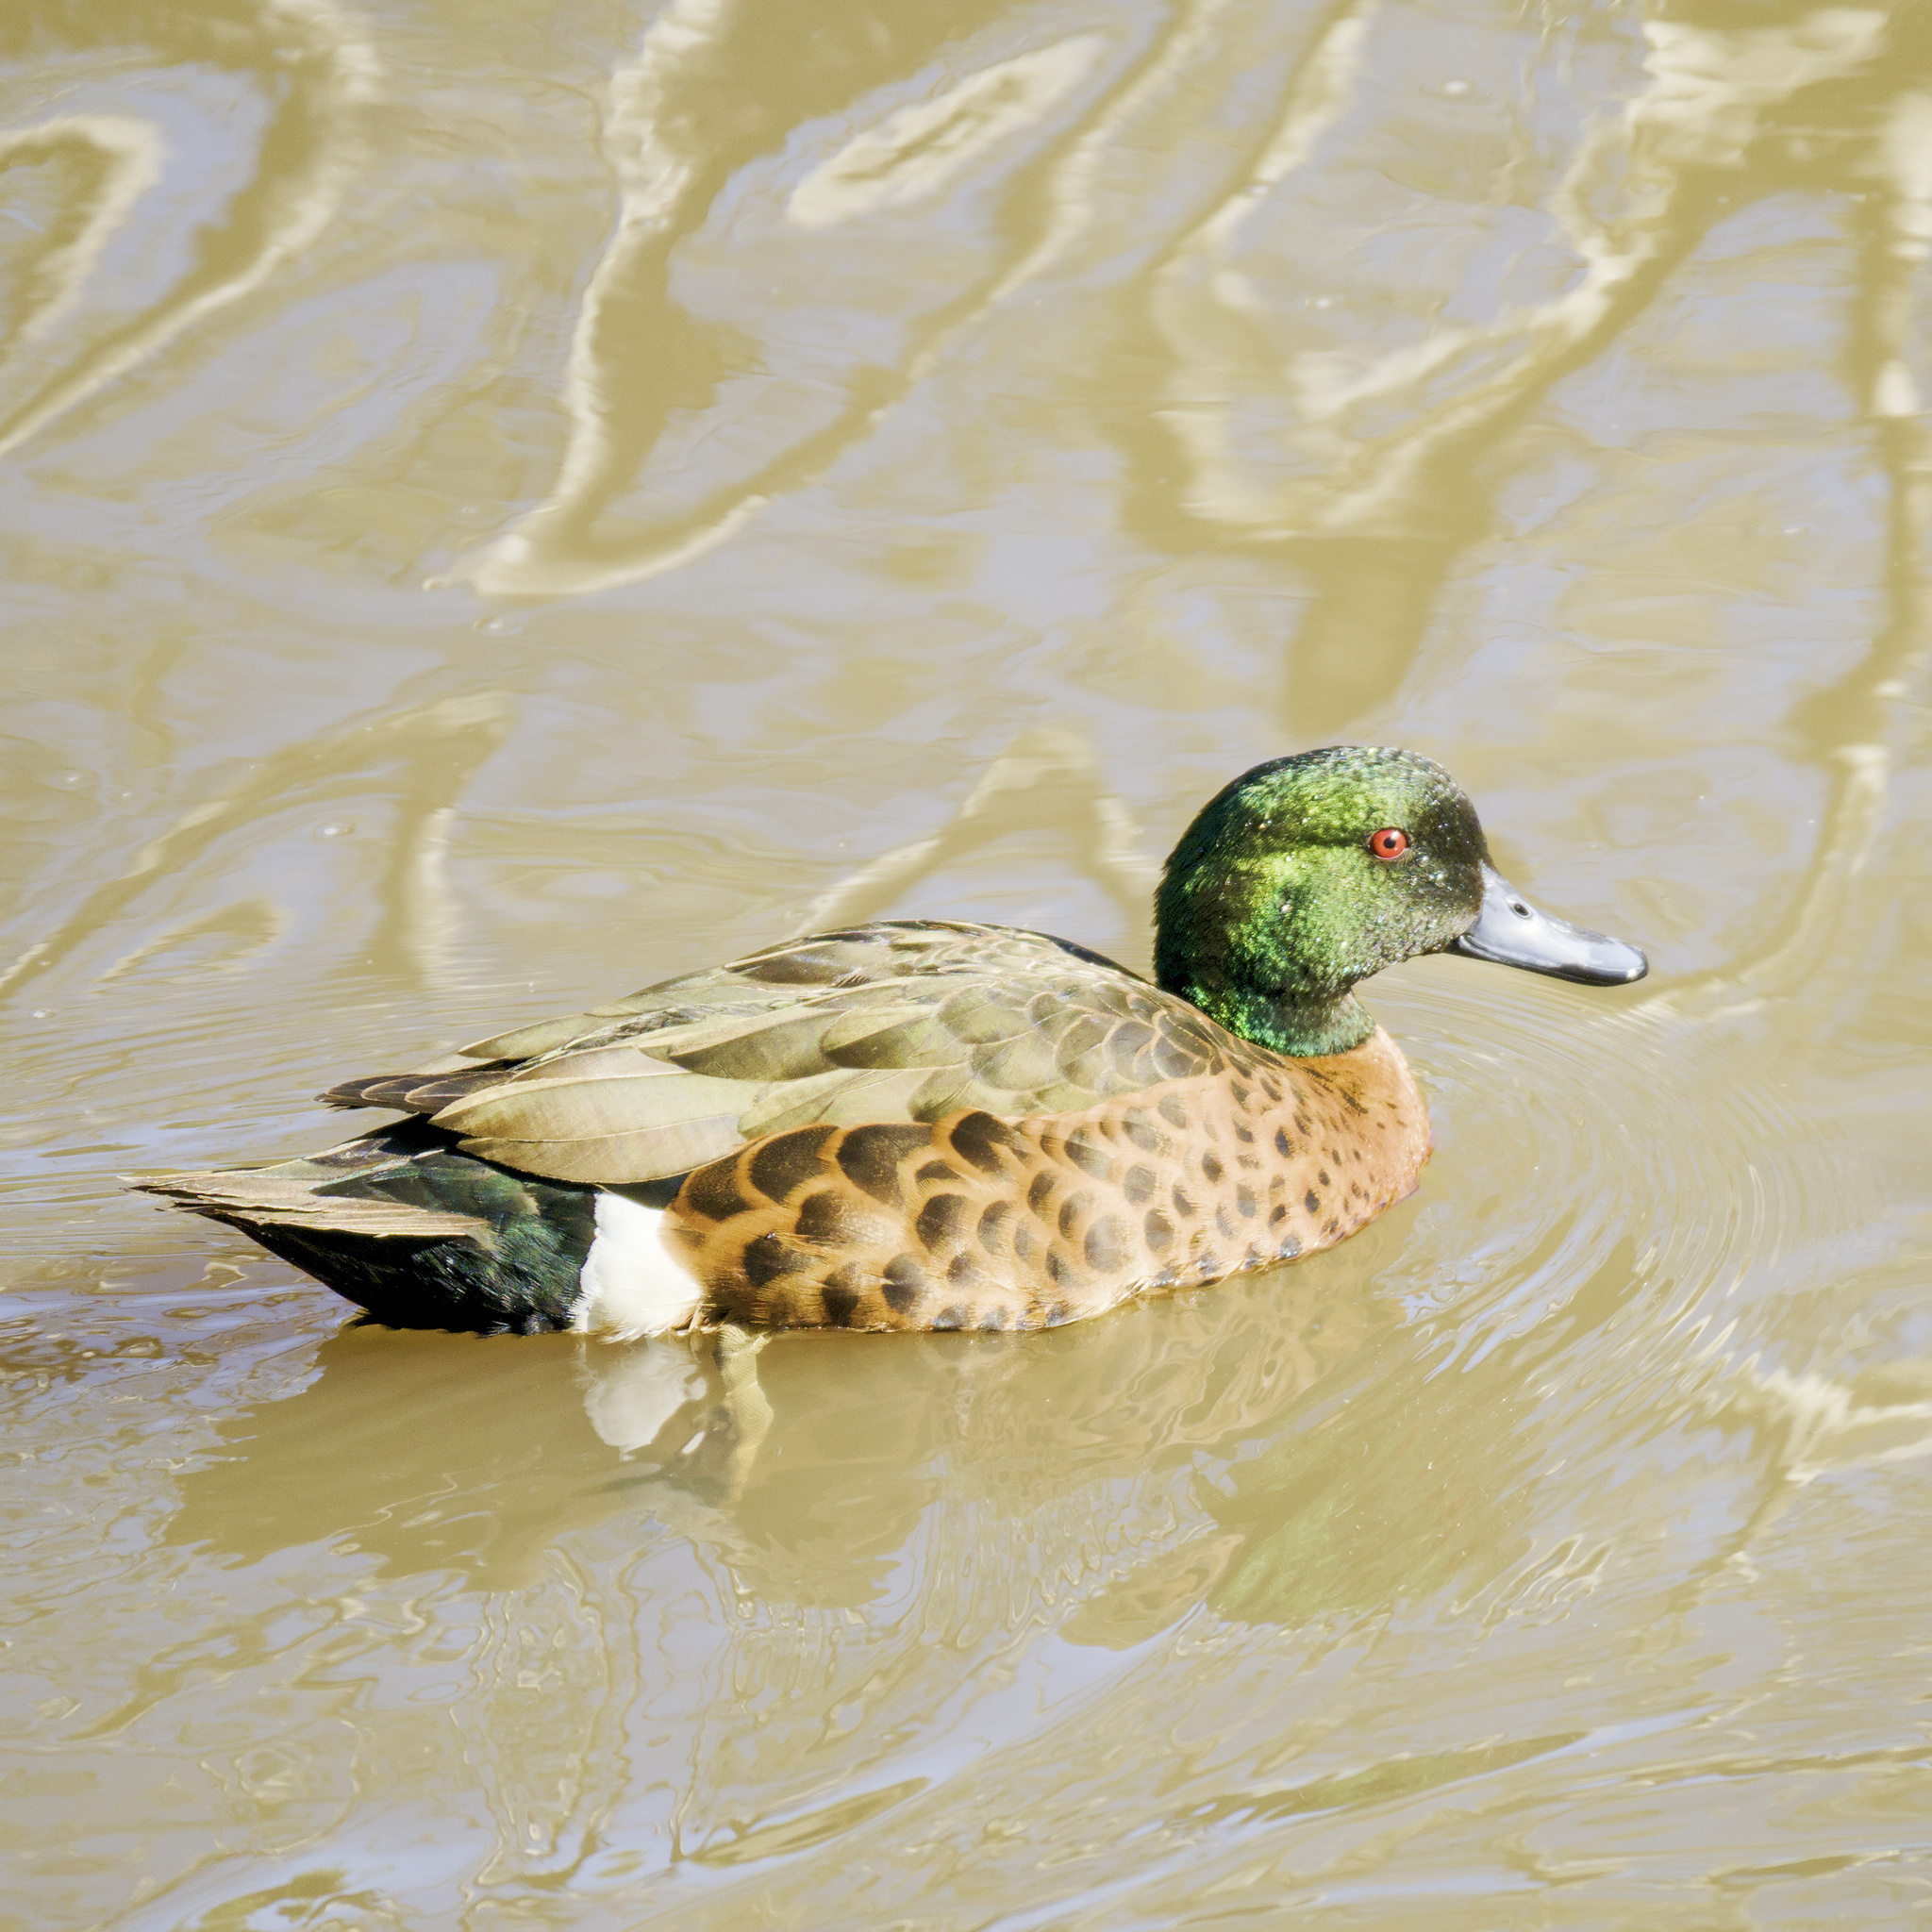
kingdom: Animalia
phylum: Chordata
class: Aves
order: Anseriformes
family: Anatidae
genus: Anas
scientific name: Anas castanea
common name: Chestnut teal
